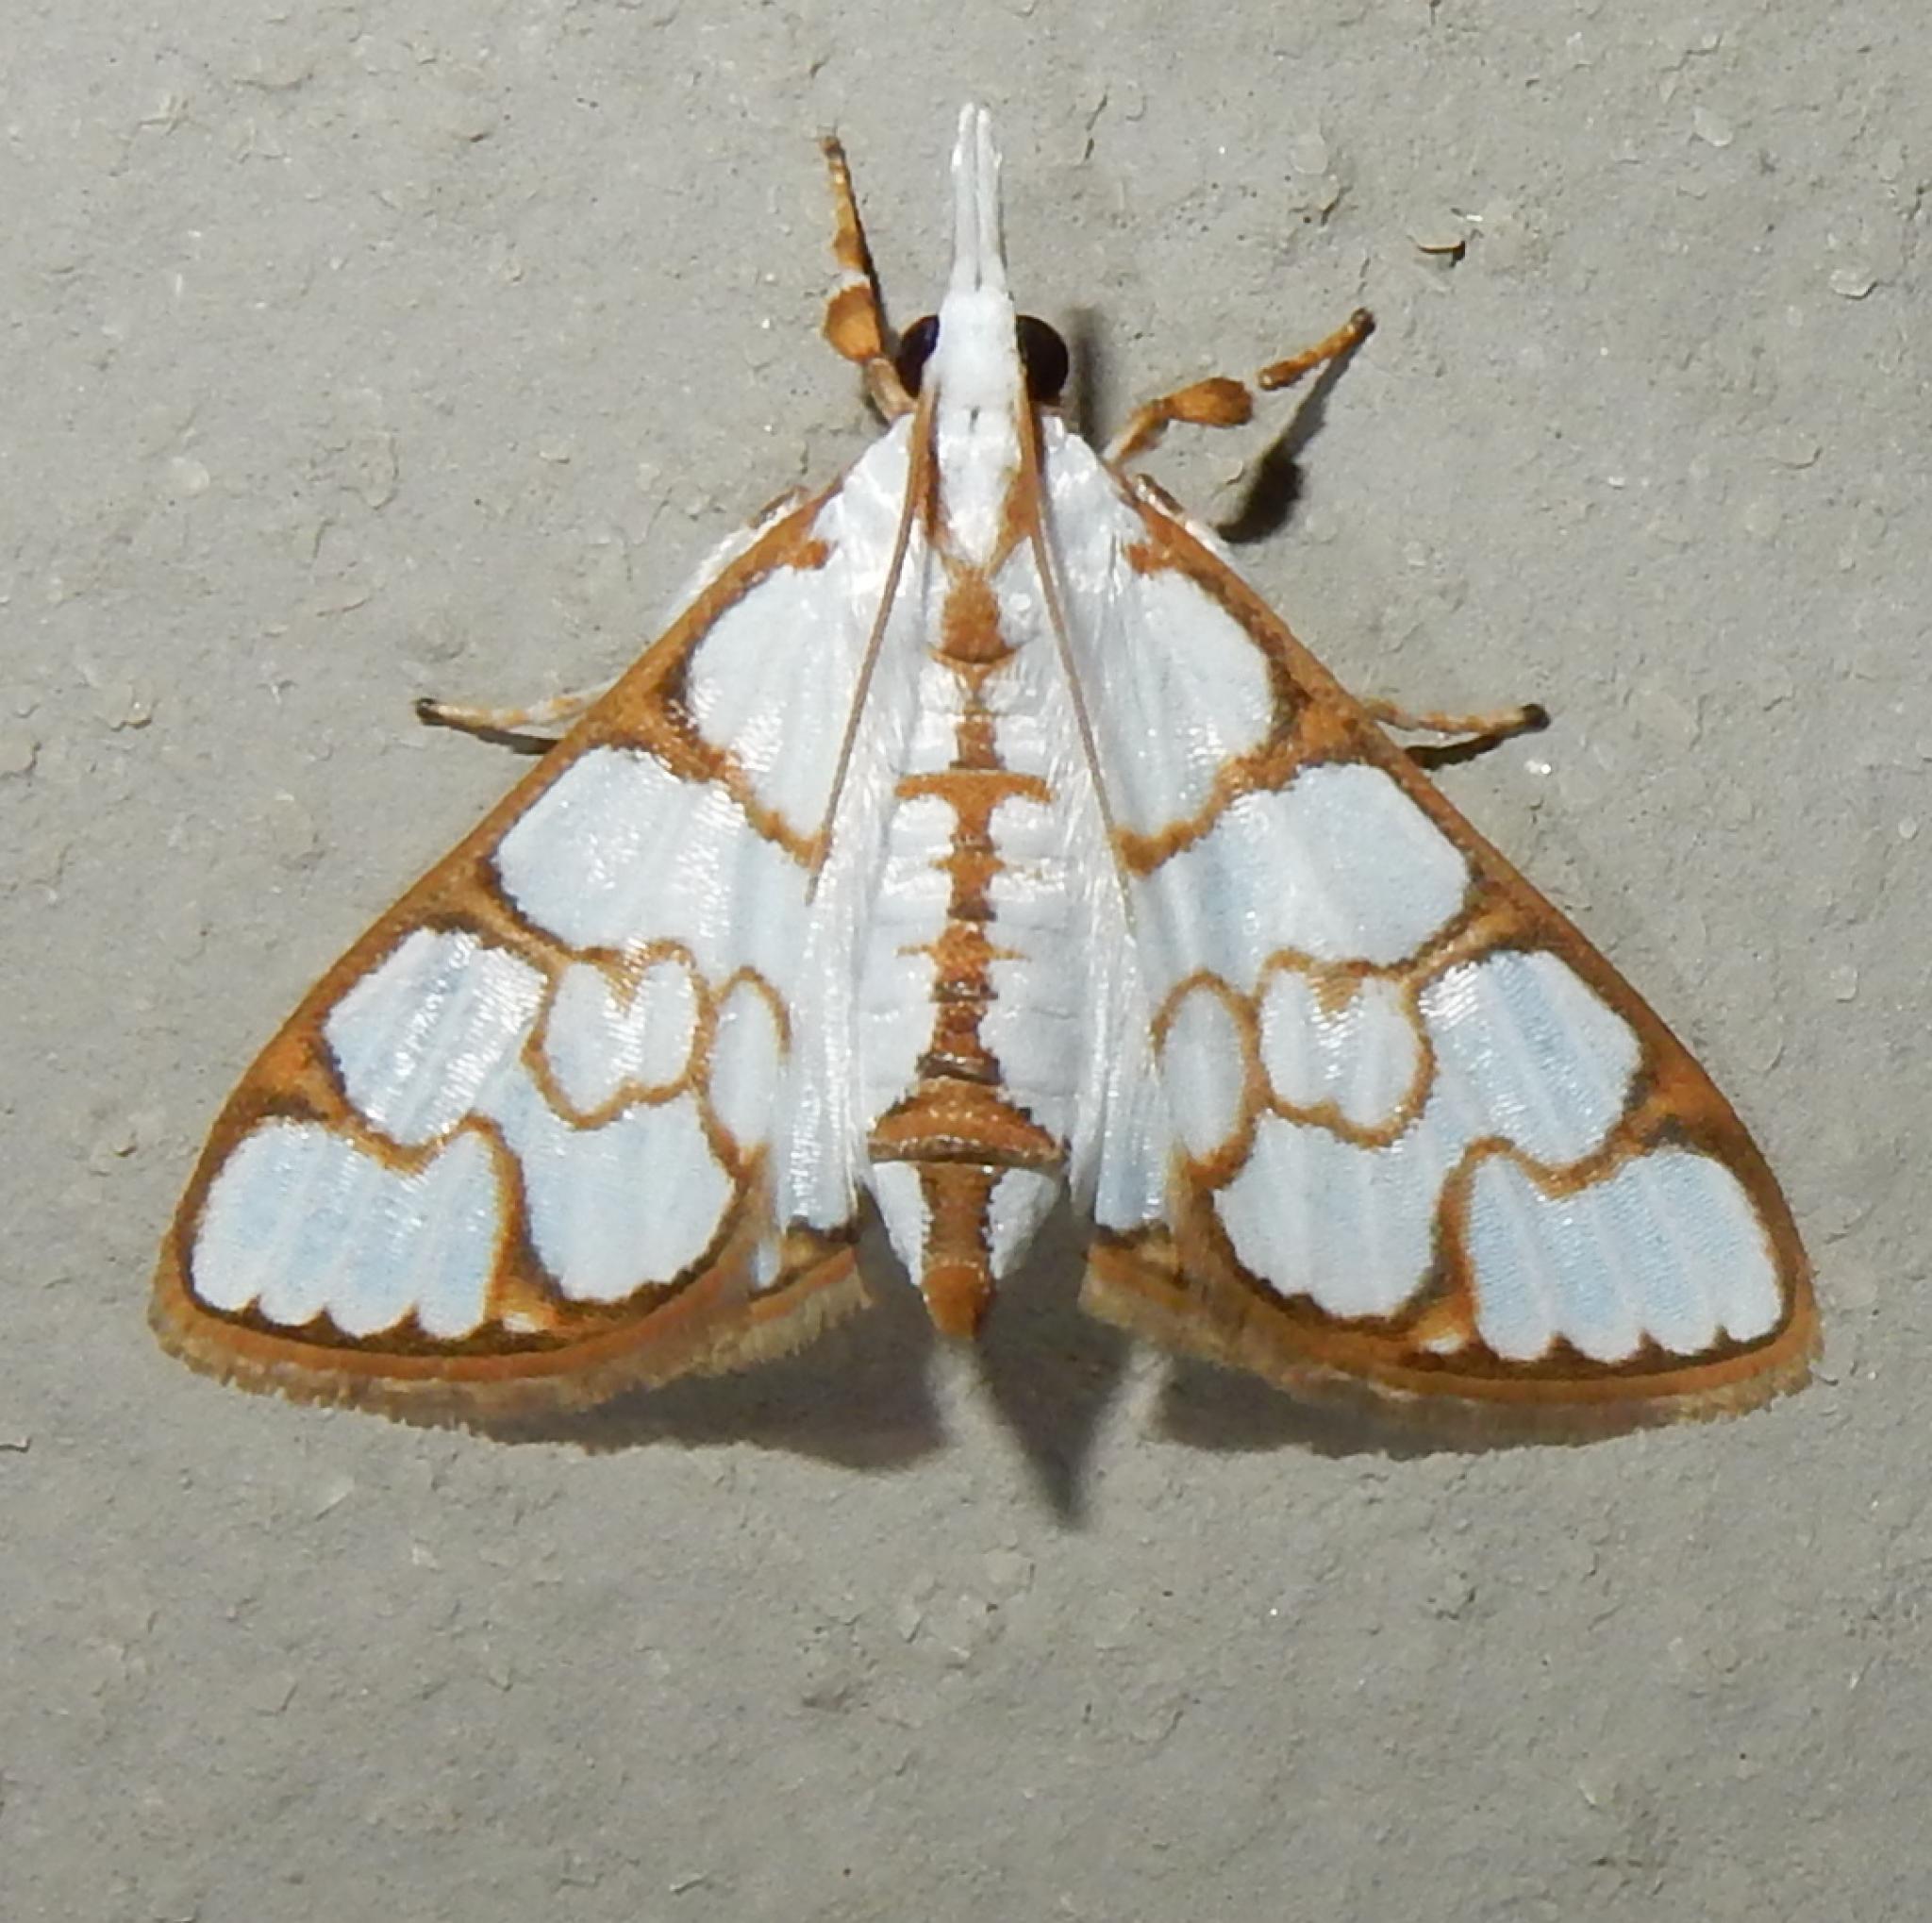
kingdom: Animalia
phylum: Arthropoda
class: Insecta
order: Lepidoptera
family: Crambidae
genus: Cirrhochrista
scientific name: Cirrhochrista grabczewskyi
